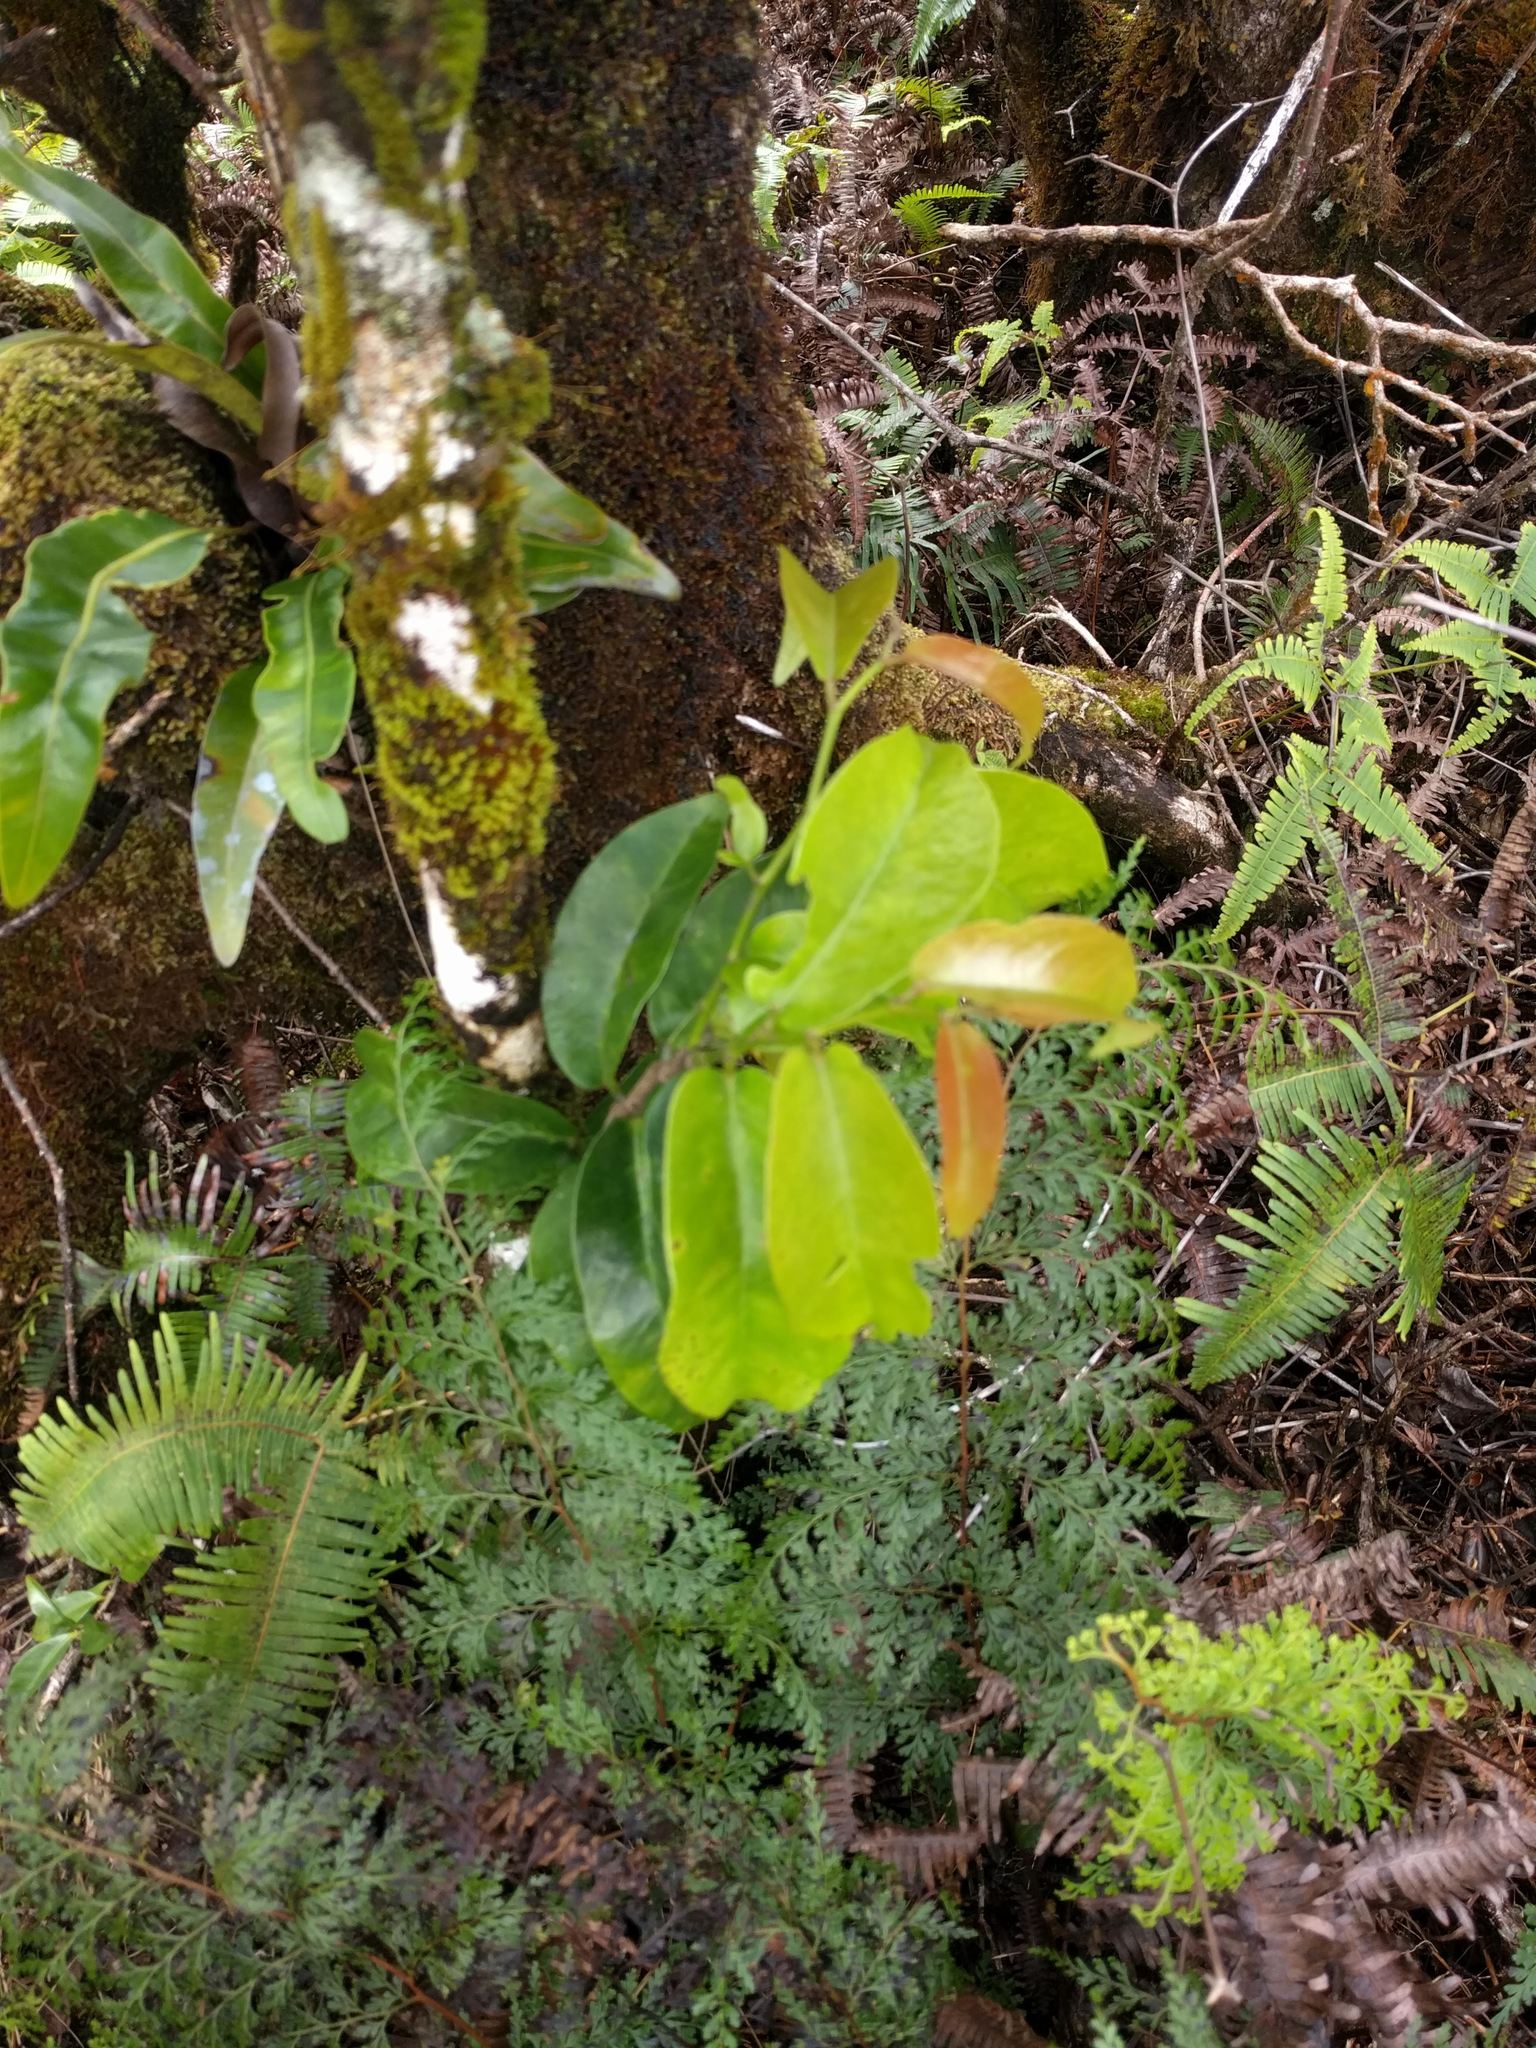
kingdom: Plantae
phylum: Tracheophyta
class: Magnoliopsida
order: Malpighiales
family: Phyllanthaceae
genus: Antidesma
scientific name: Antidesma platyphyllum
